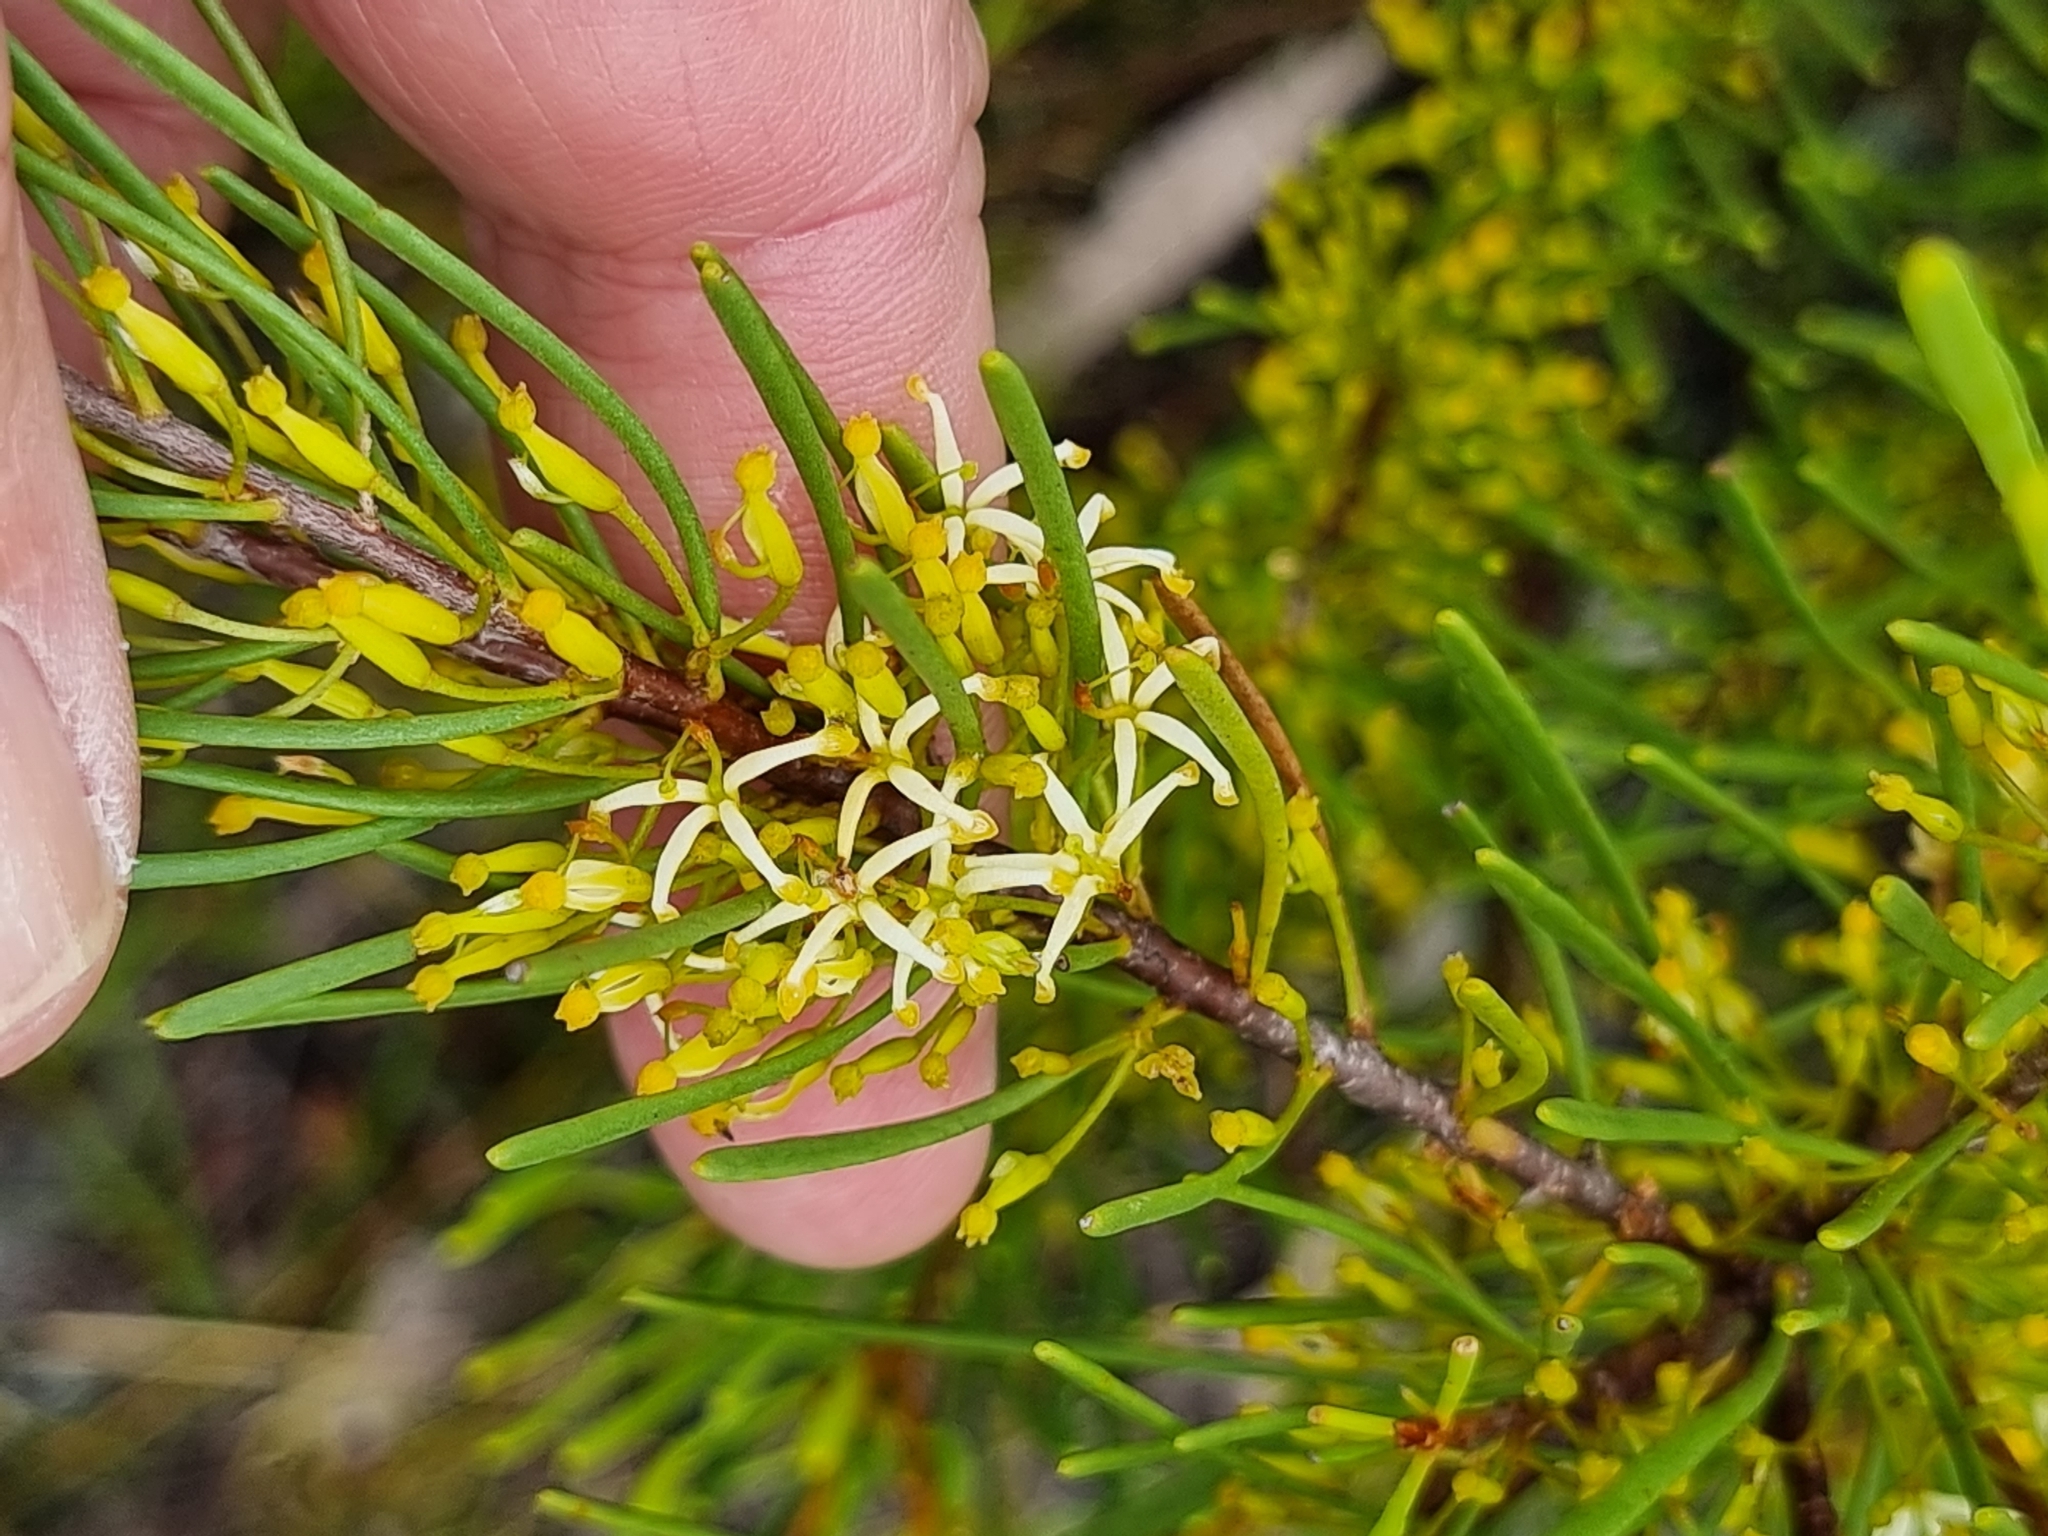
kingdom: Plantae
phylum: Tracheophyta
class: Magnoliopsida
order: Proteales
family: Proteaceae
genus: Strangea
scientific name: Strangea linearis
